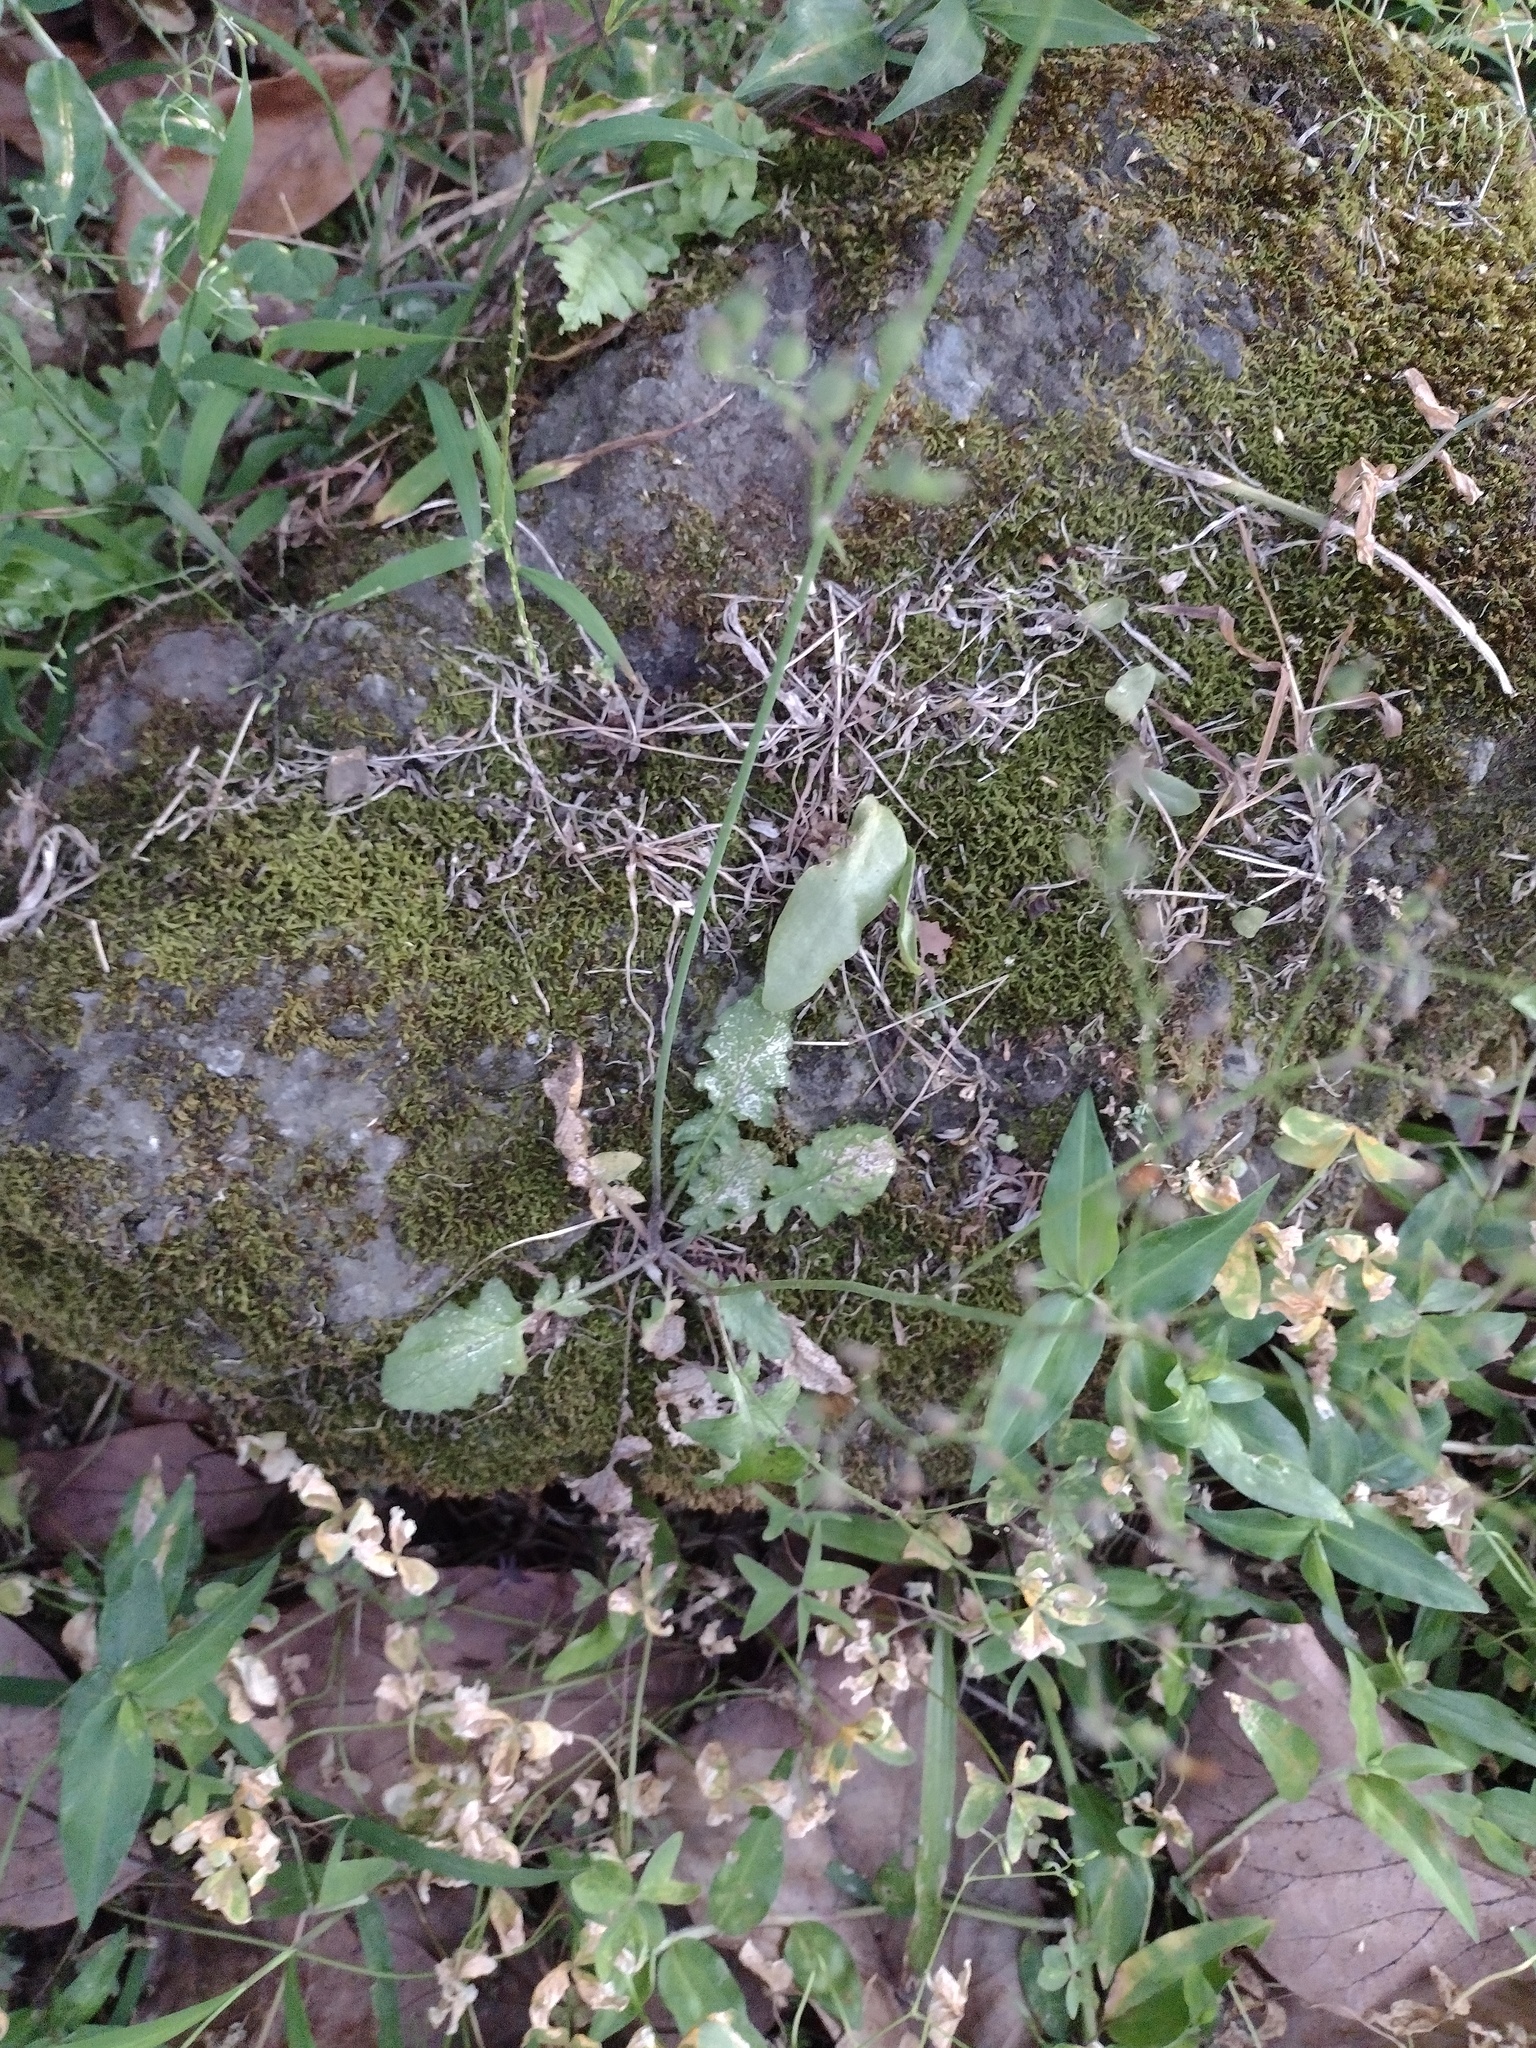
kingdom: Plantae
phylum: Tracheophyta
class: Magnoliopsida
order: Asterales
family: Asteraceae
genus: Youngia
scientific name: Youngia japonica
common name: Oriental false hawksbeard
